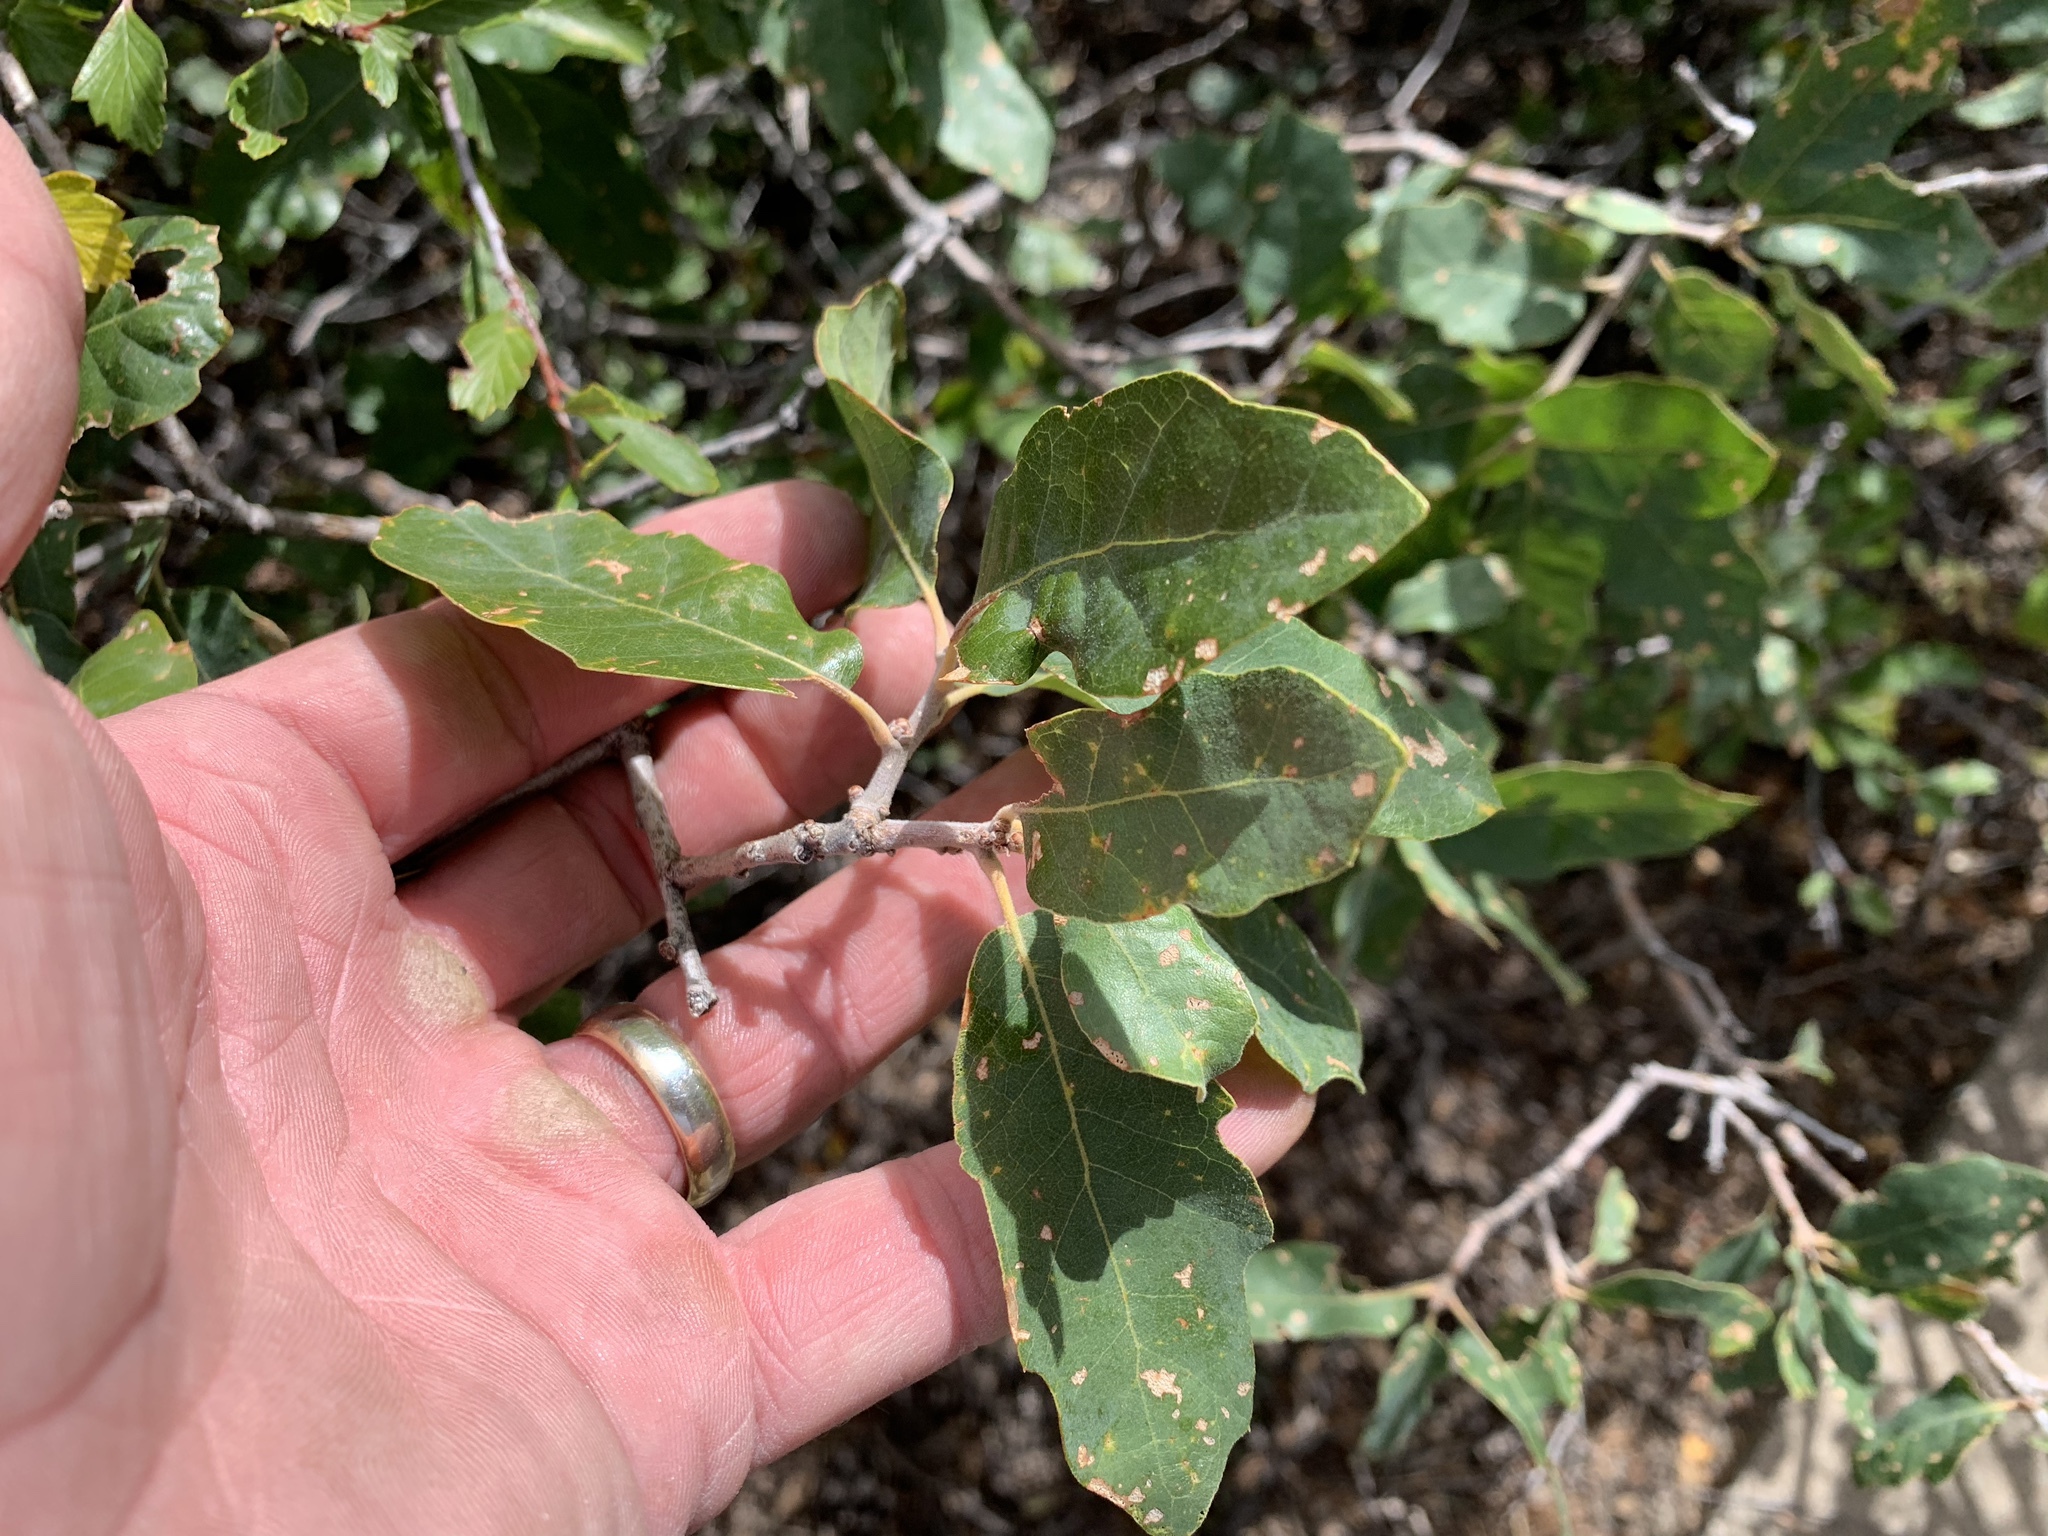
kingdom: Plantae
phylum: Tracheophyta
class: Magnoliopsida
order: Fagales
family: Fagaceae
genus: Quercus
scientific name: Quercus undulata
